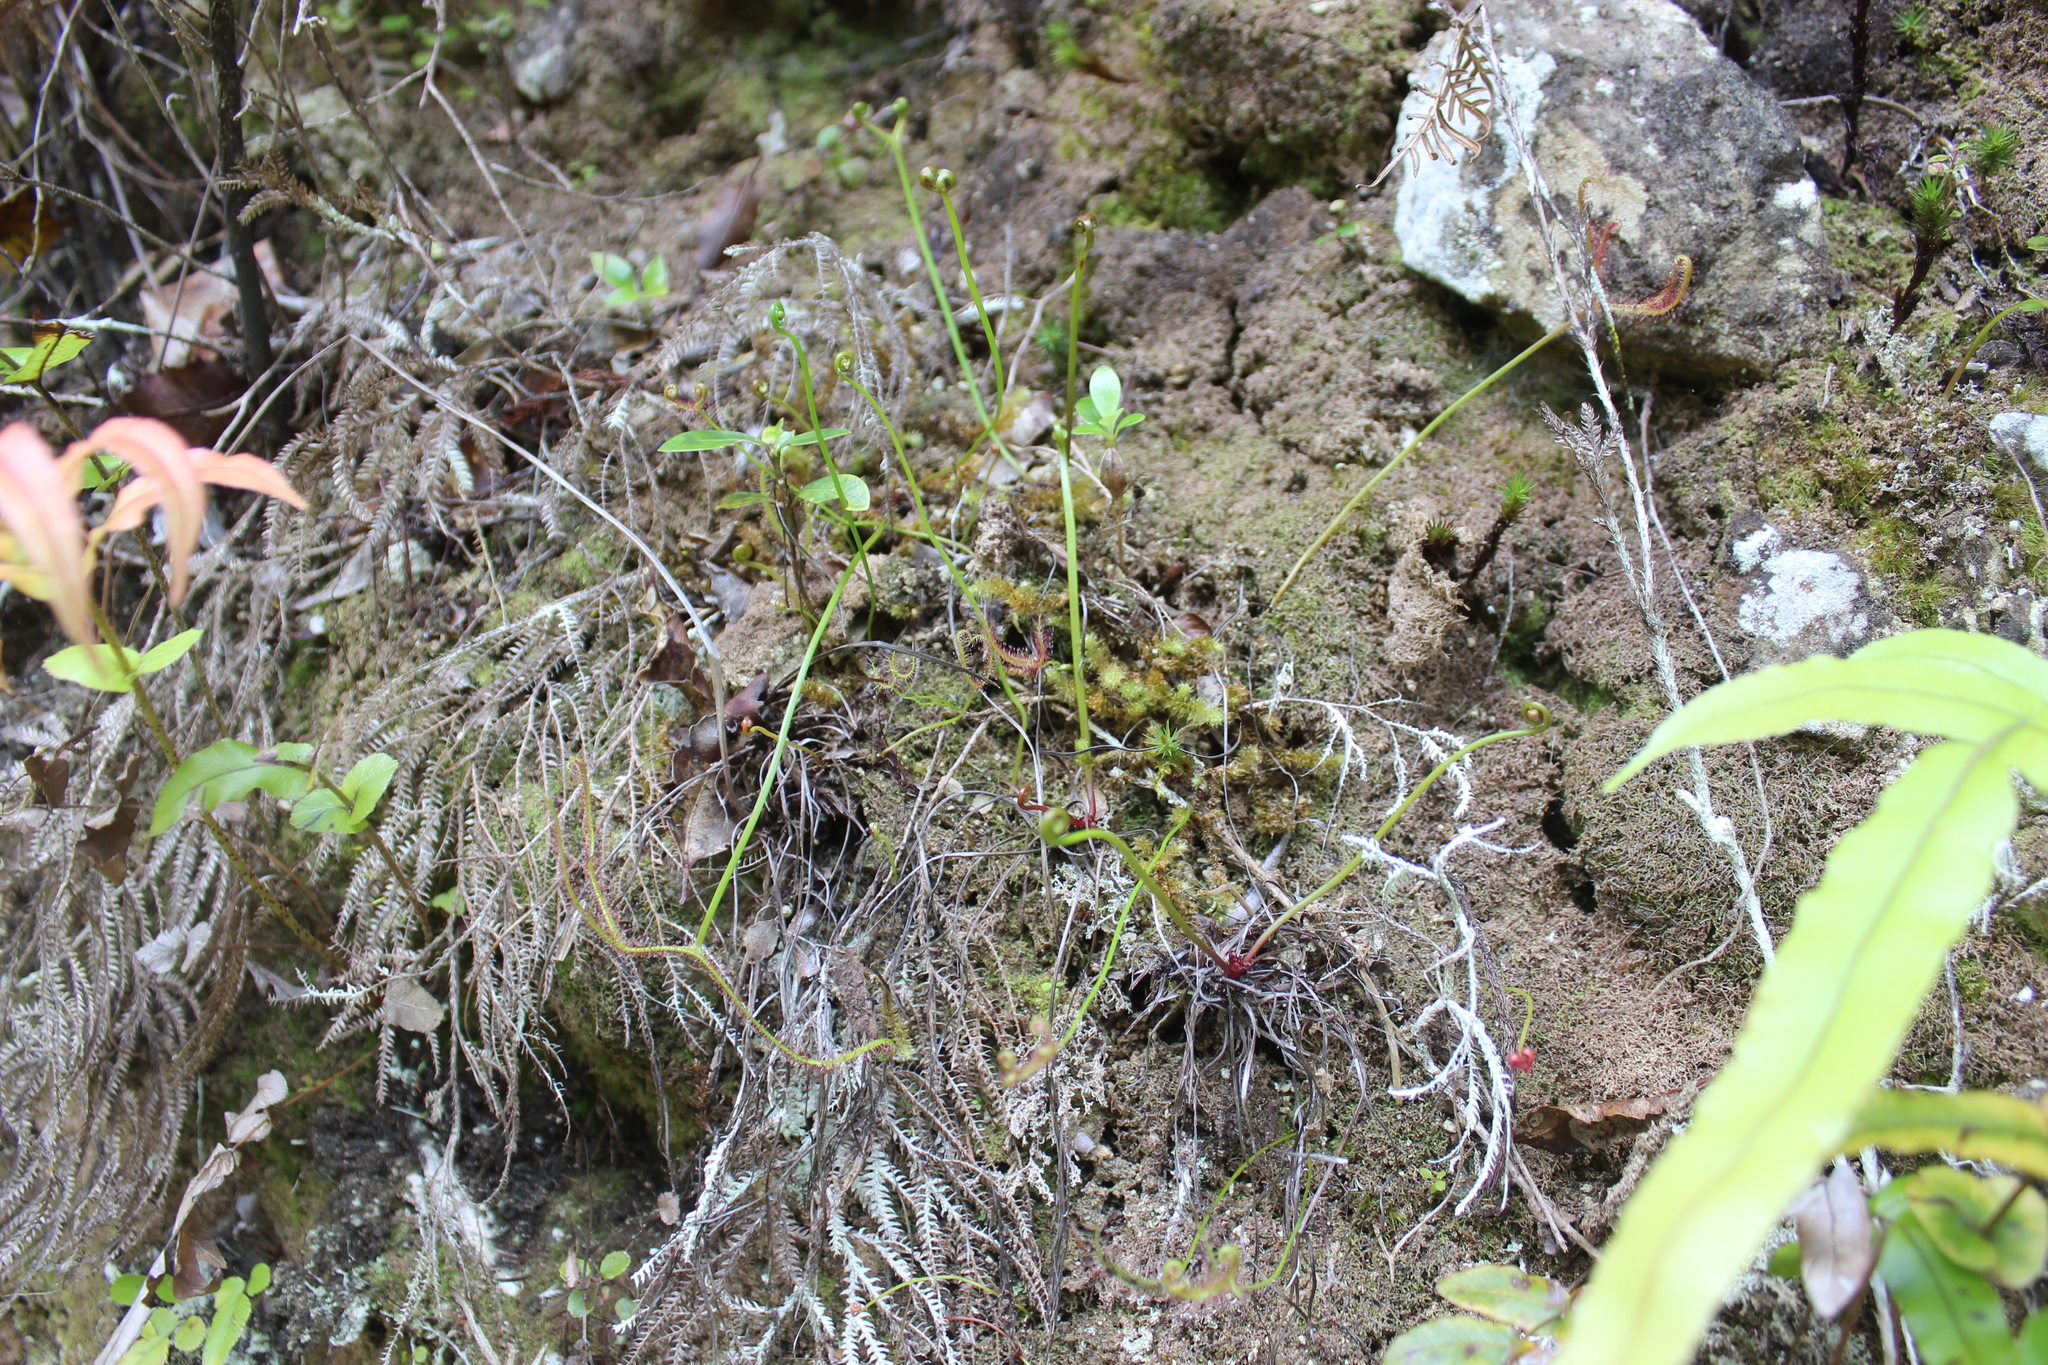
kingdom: Plantae
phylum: Tracheophyta
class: Magnoliopsida
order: Caryophyllales
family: Droseraceae
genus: Drosera
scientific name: Drosera binata
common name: Forked sundew
